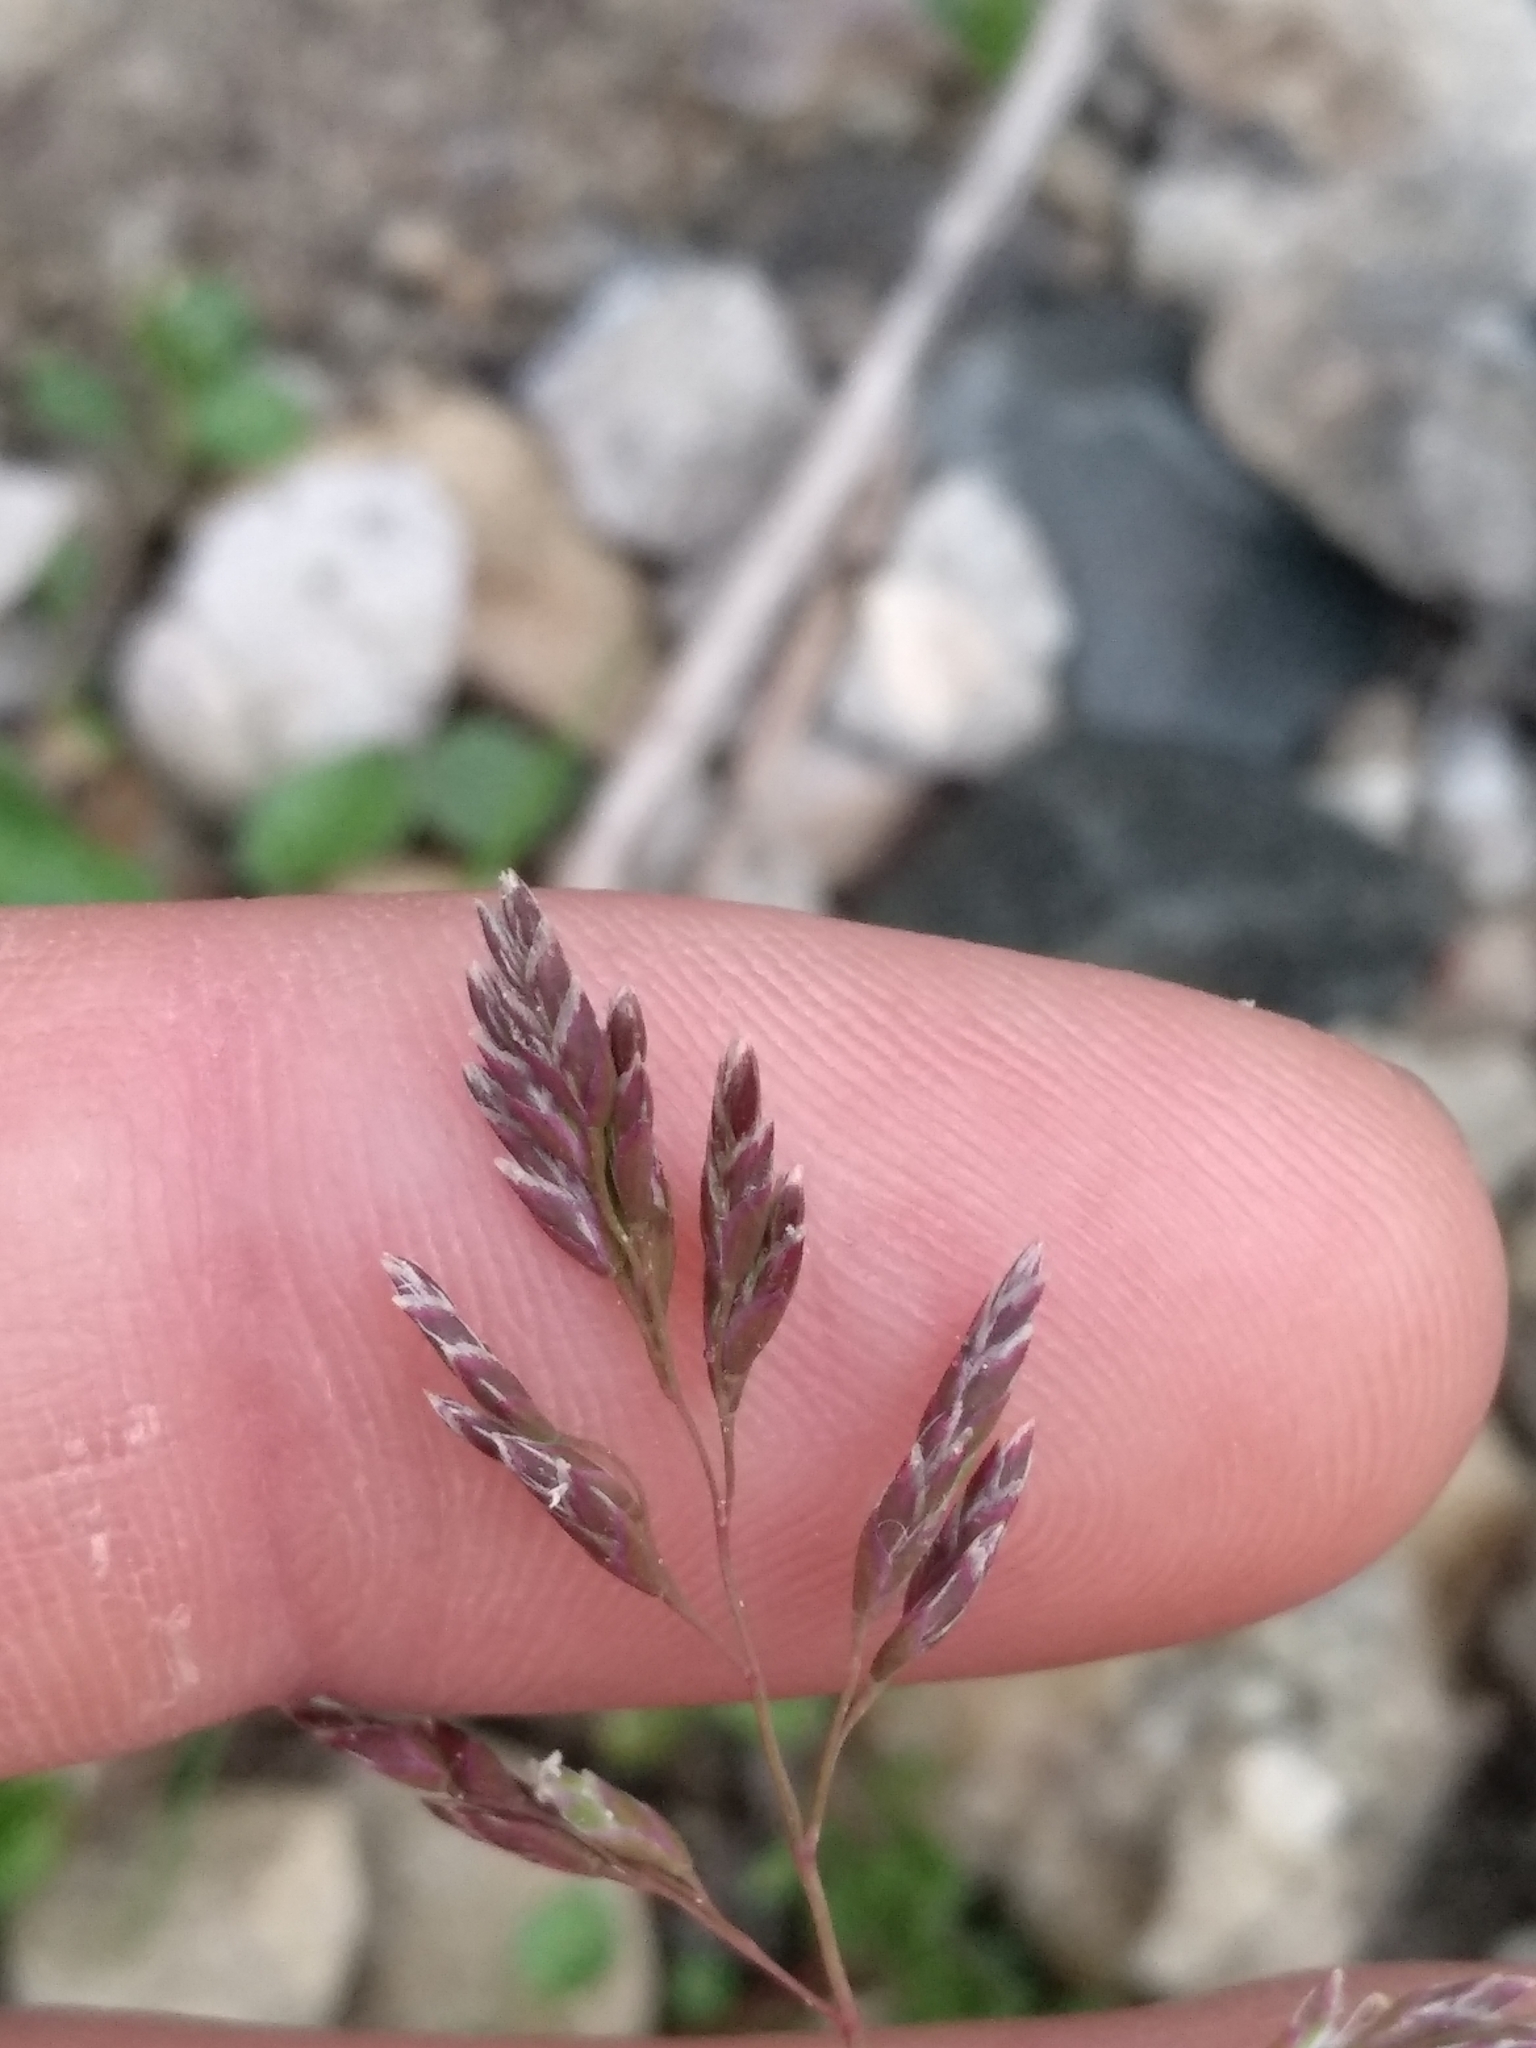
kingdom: Plantae
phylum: Tracheophyta
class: Liliopsida
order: Poales
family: Poaceae
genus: Poa
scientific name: Poa annua
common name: Annual bluegrass
